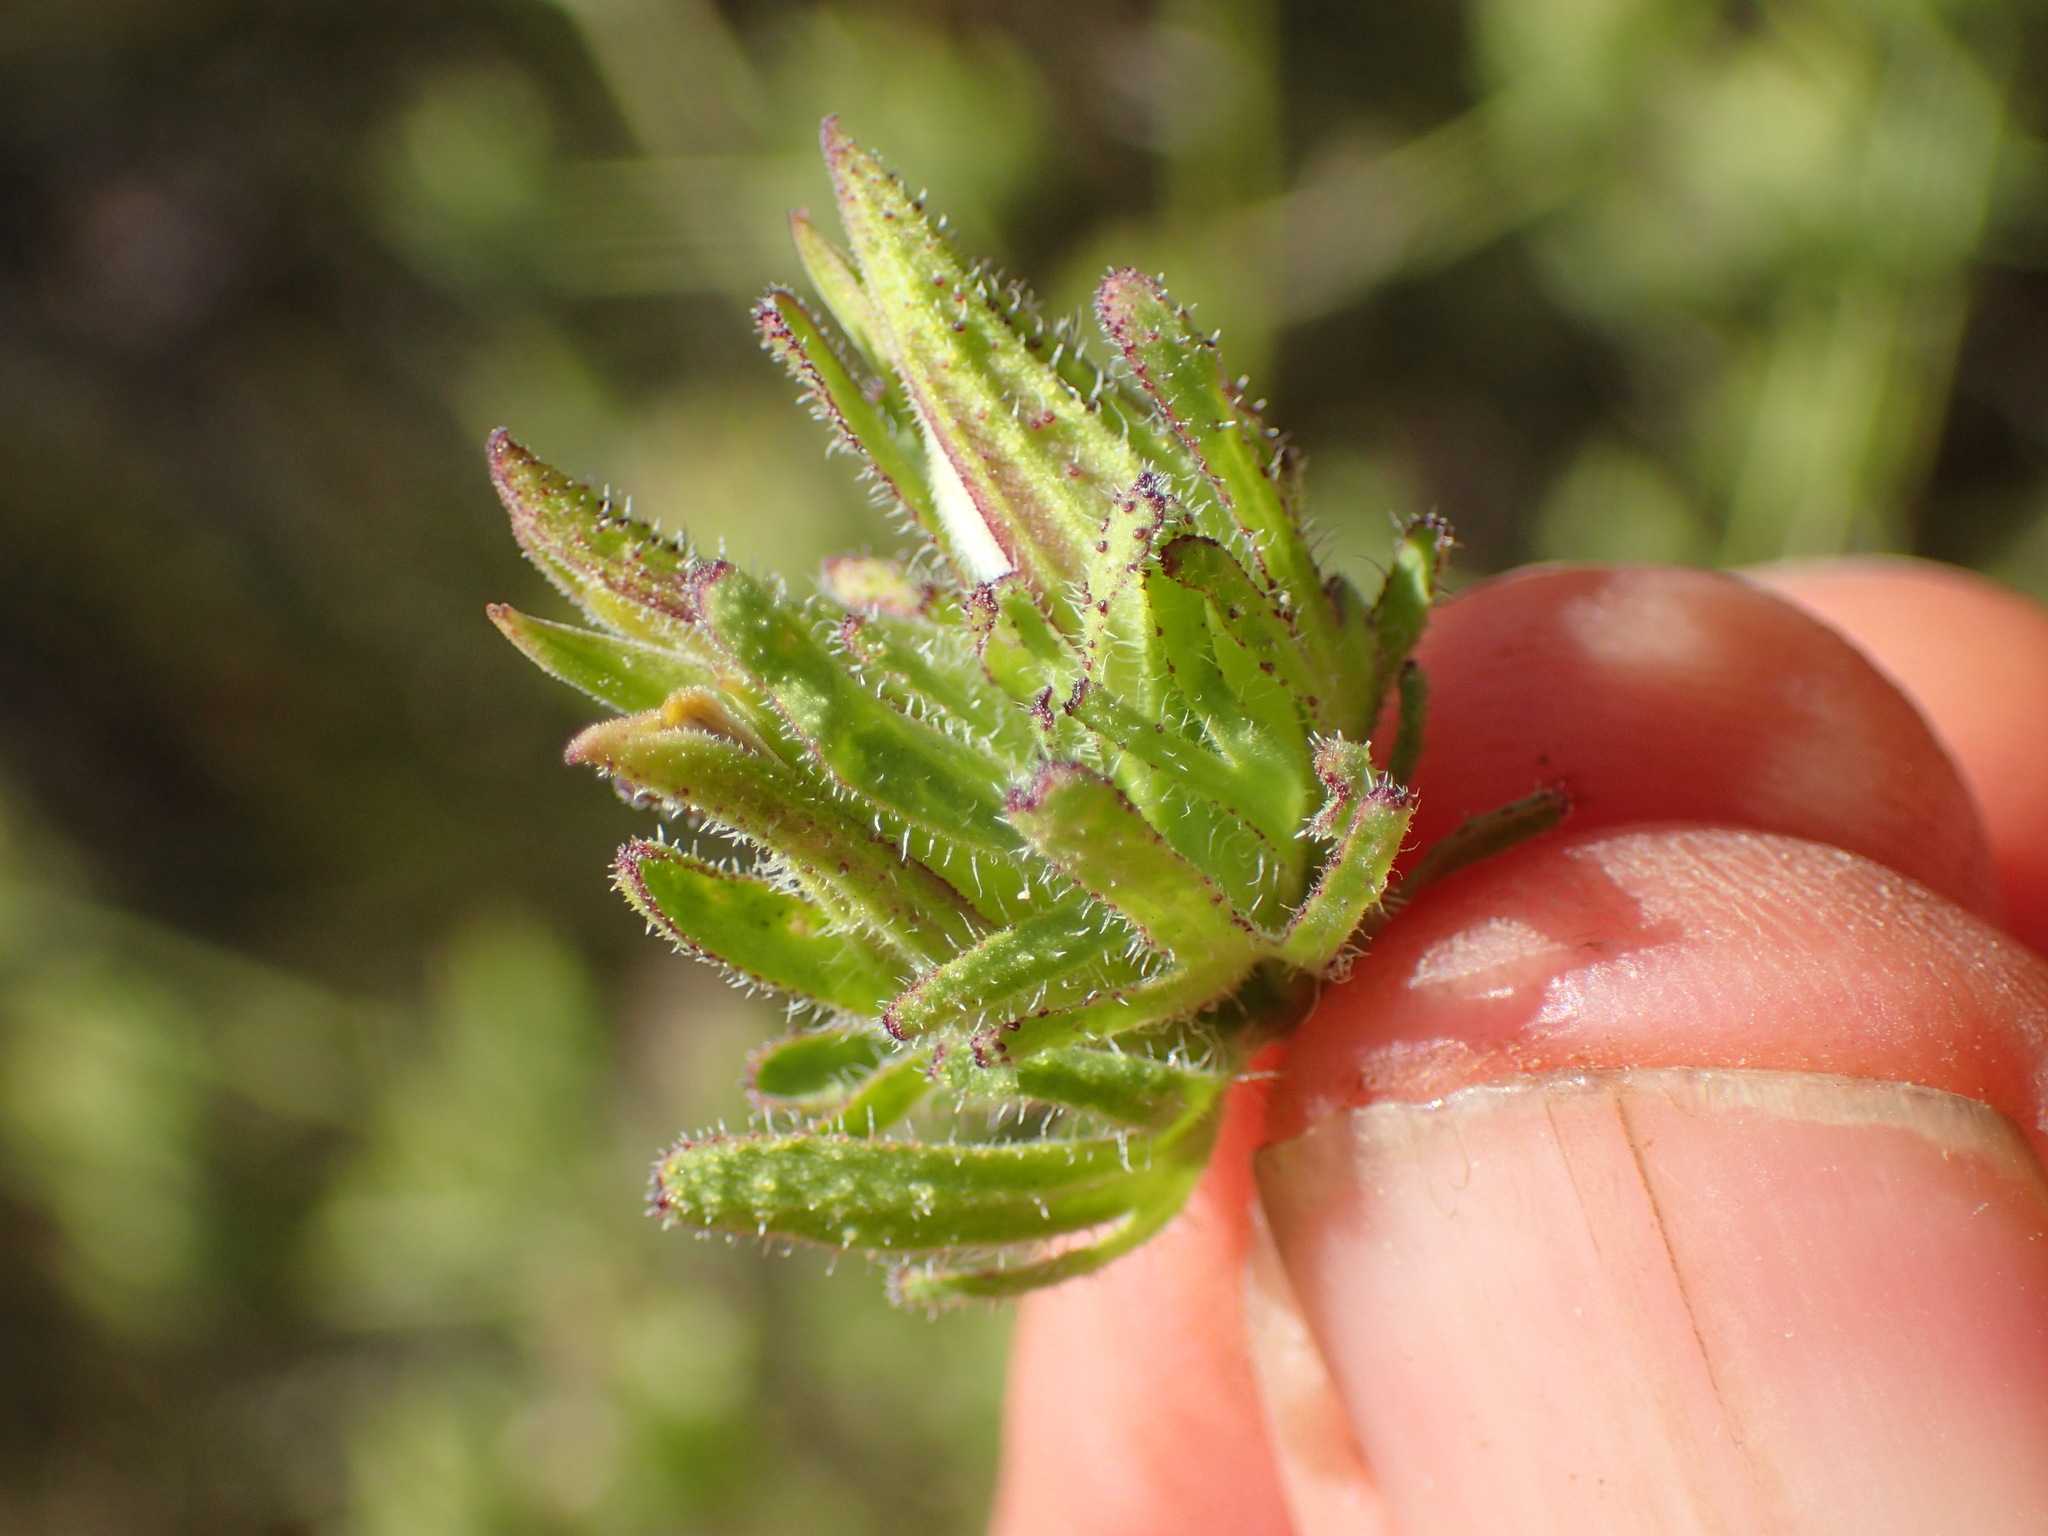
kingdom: Plantae
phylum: Tracheophyta
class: Magnoliopsida
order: Lamiales
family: Orobanchaceae
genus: Cordylanthus
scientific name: Cordylanthus rigidus
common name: Stiff-branch bird's-beak
